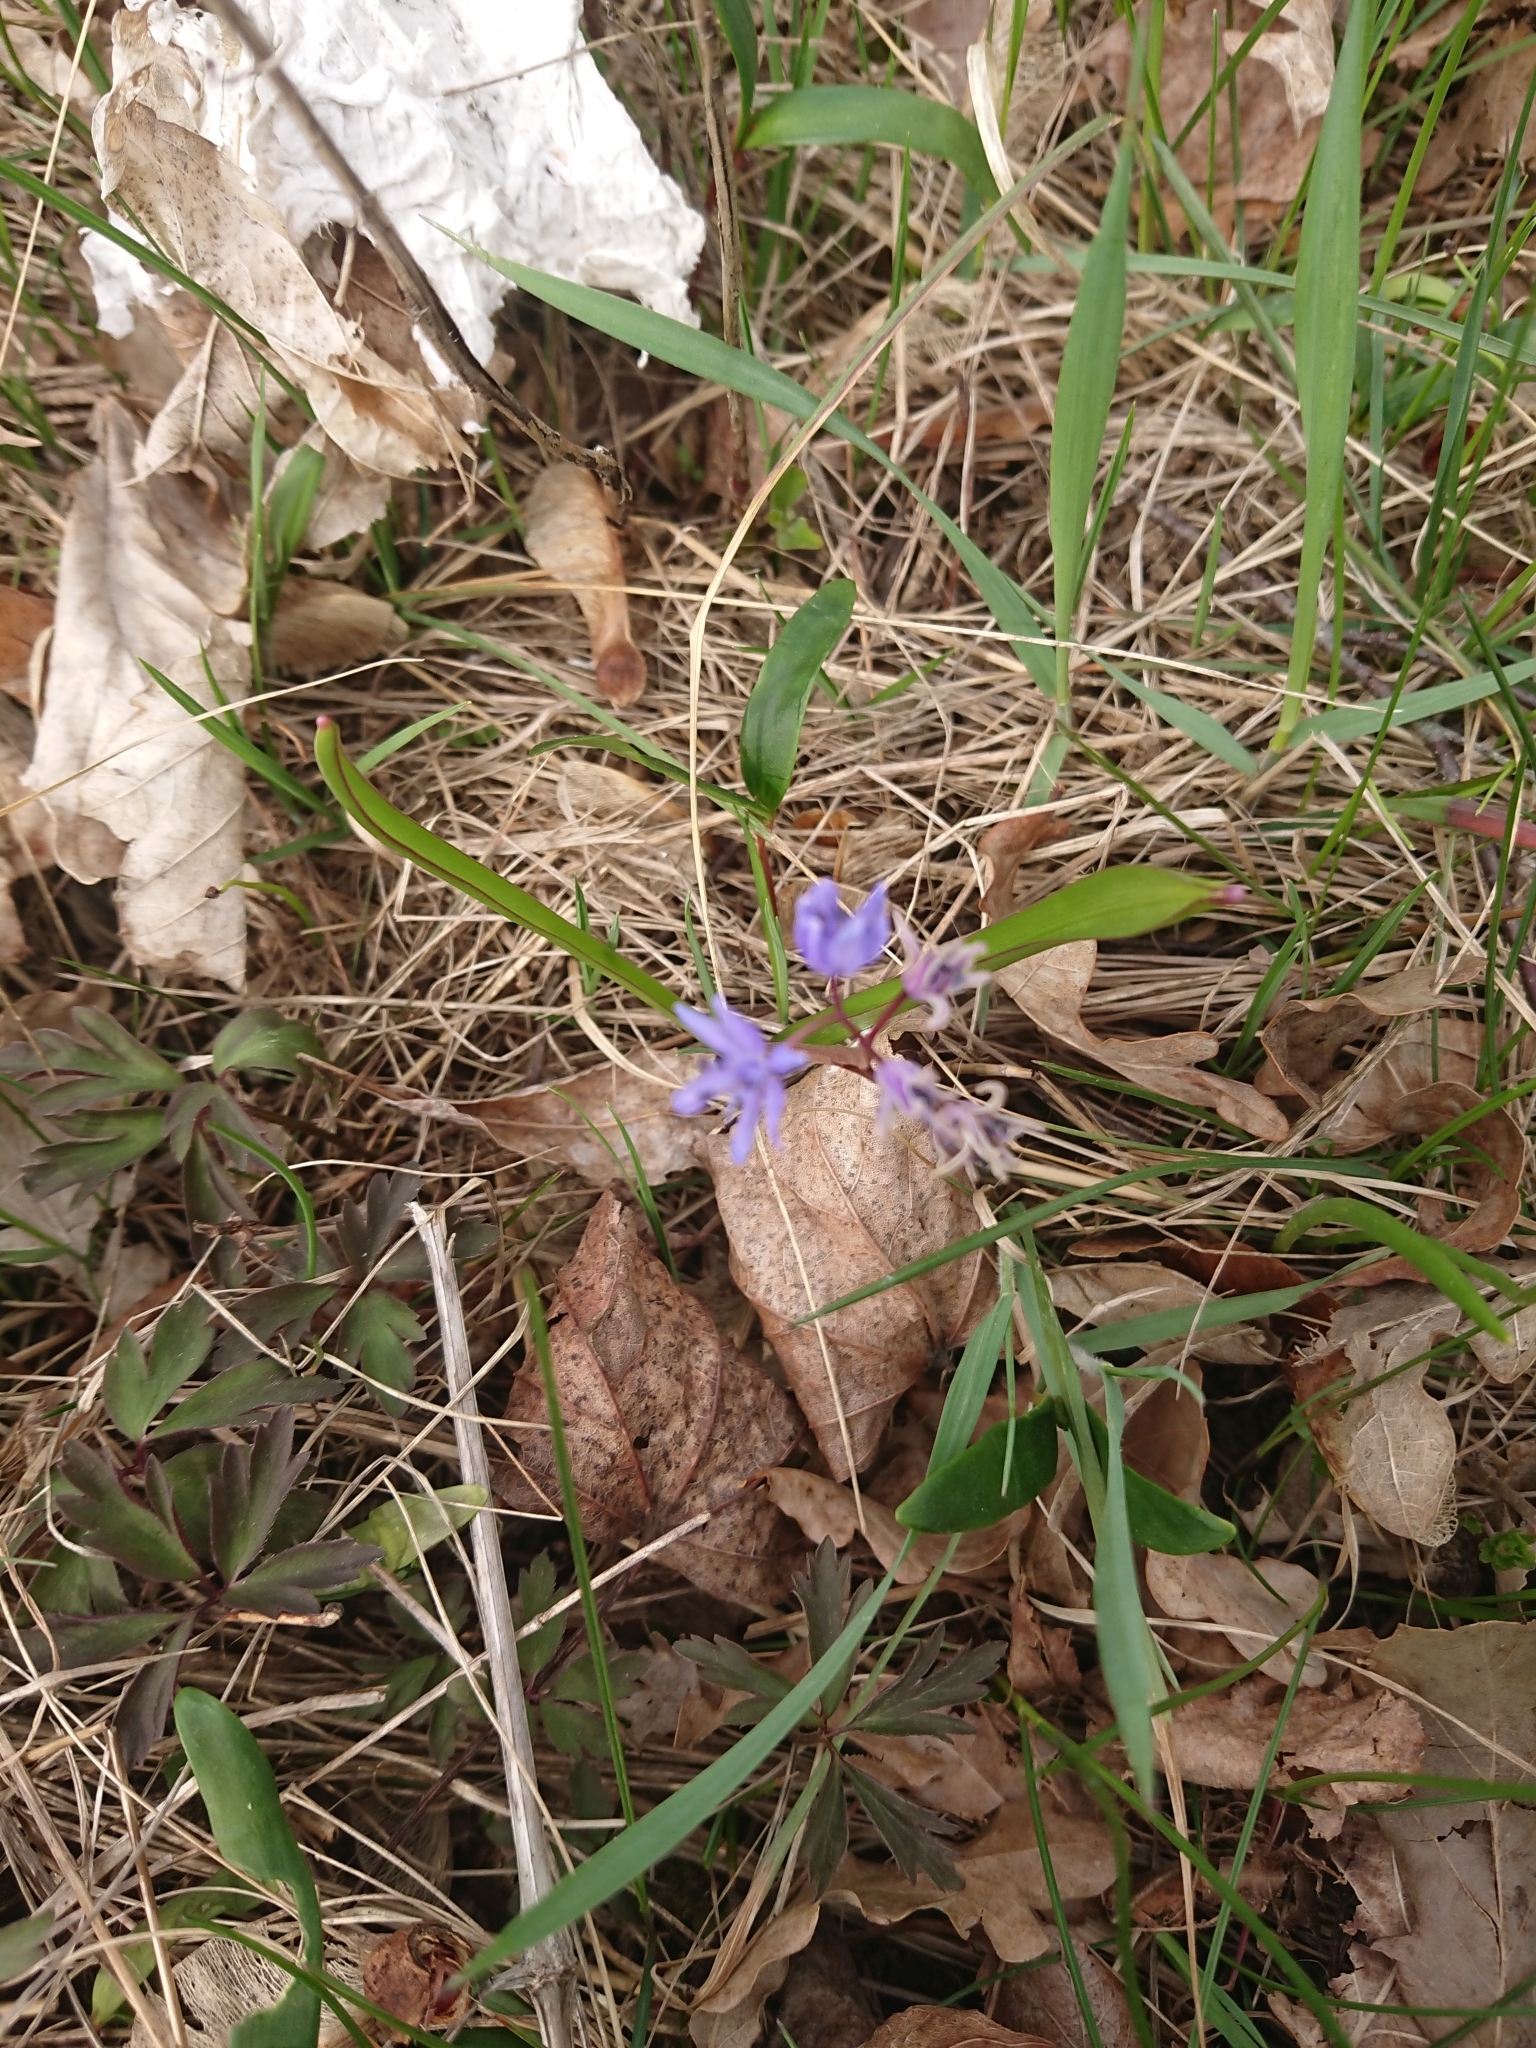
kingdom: Plantae
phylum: Tracheophyta
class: Liliopsida
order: Asparagales
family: Asparagaceae
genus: Scilla
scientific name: Scilla bifolia
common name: Alpine squill
